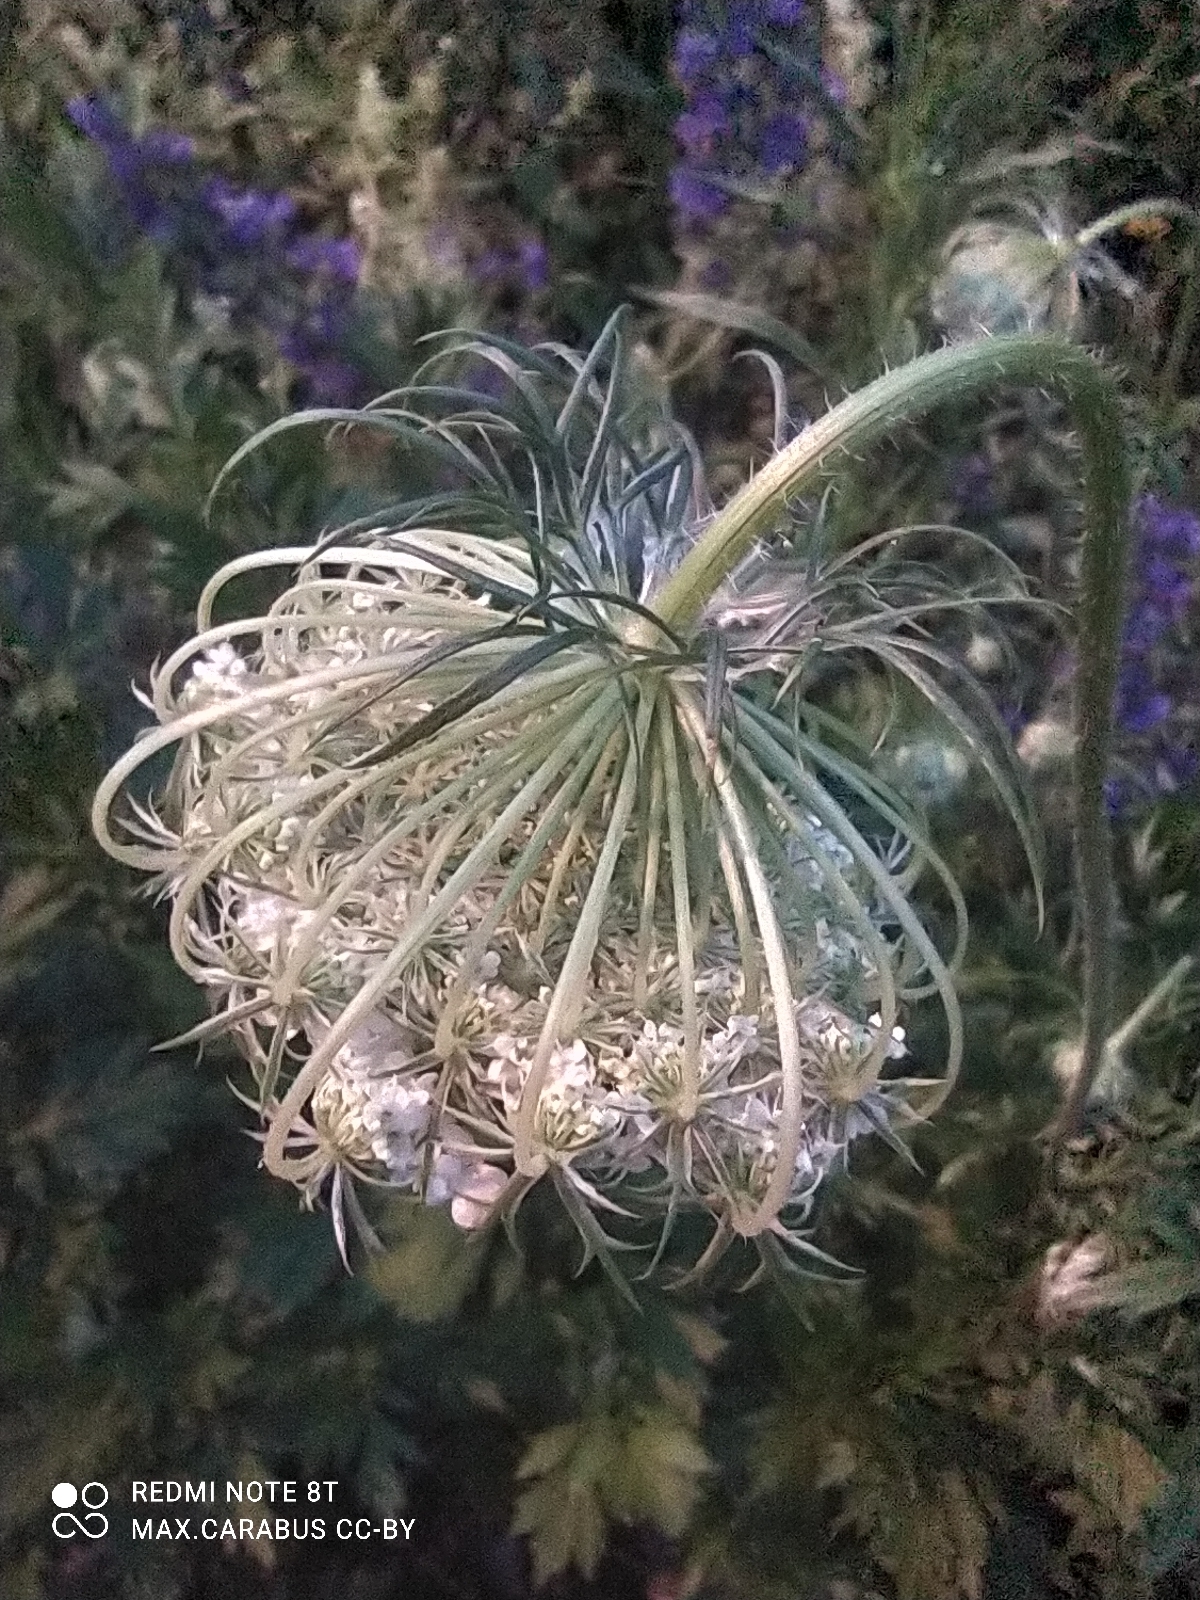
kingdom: Plantae
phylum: Tracheophyta
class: Magnoliopsida
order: Apiales
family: Apiaceae
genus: Daucus
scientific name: Daucus carota
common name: Wild carrot
